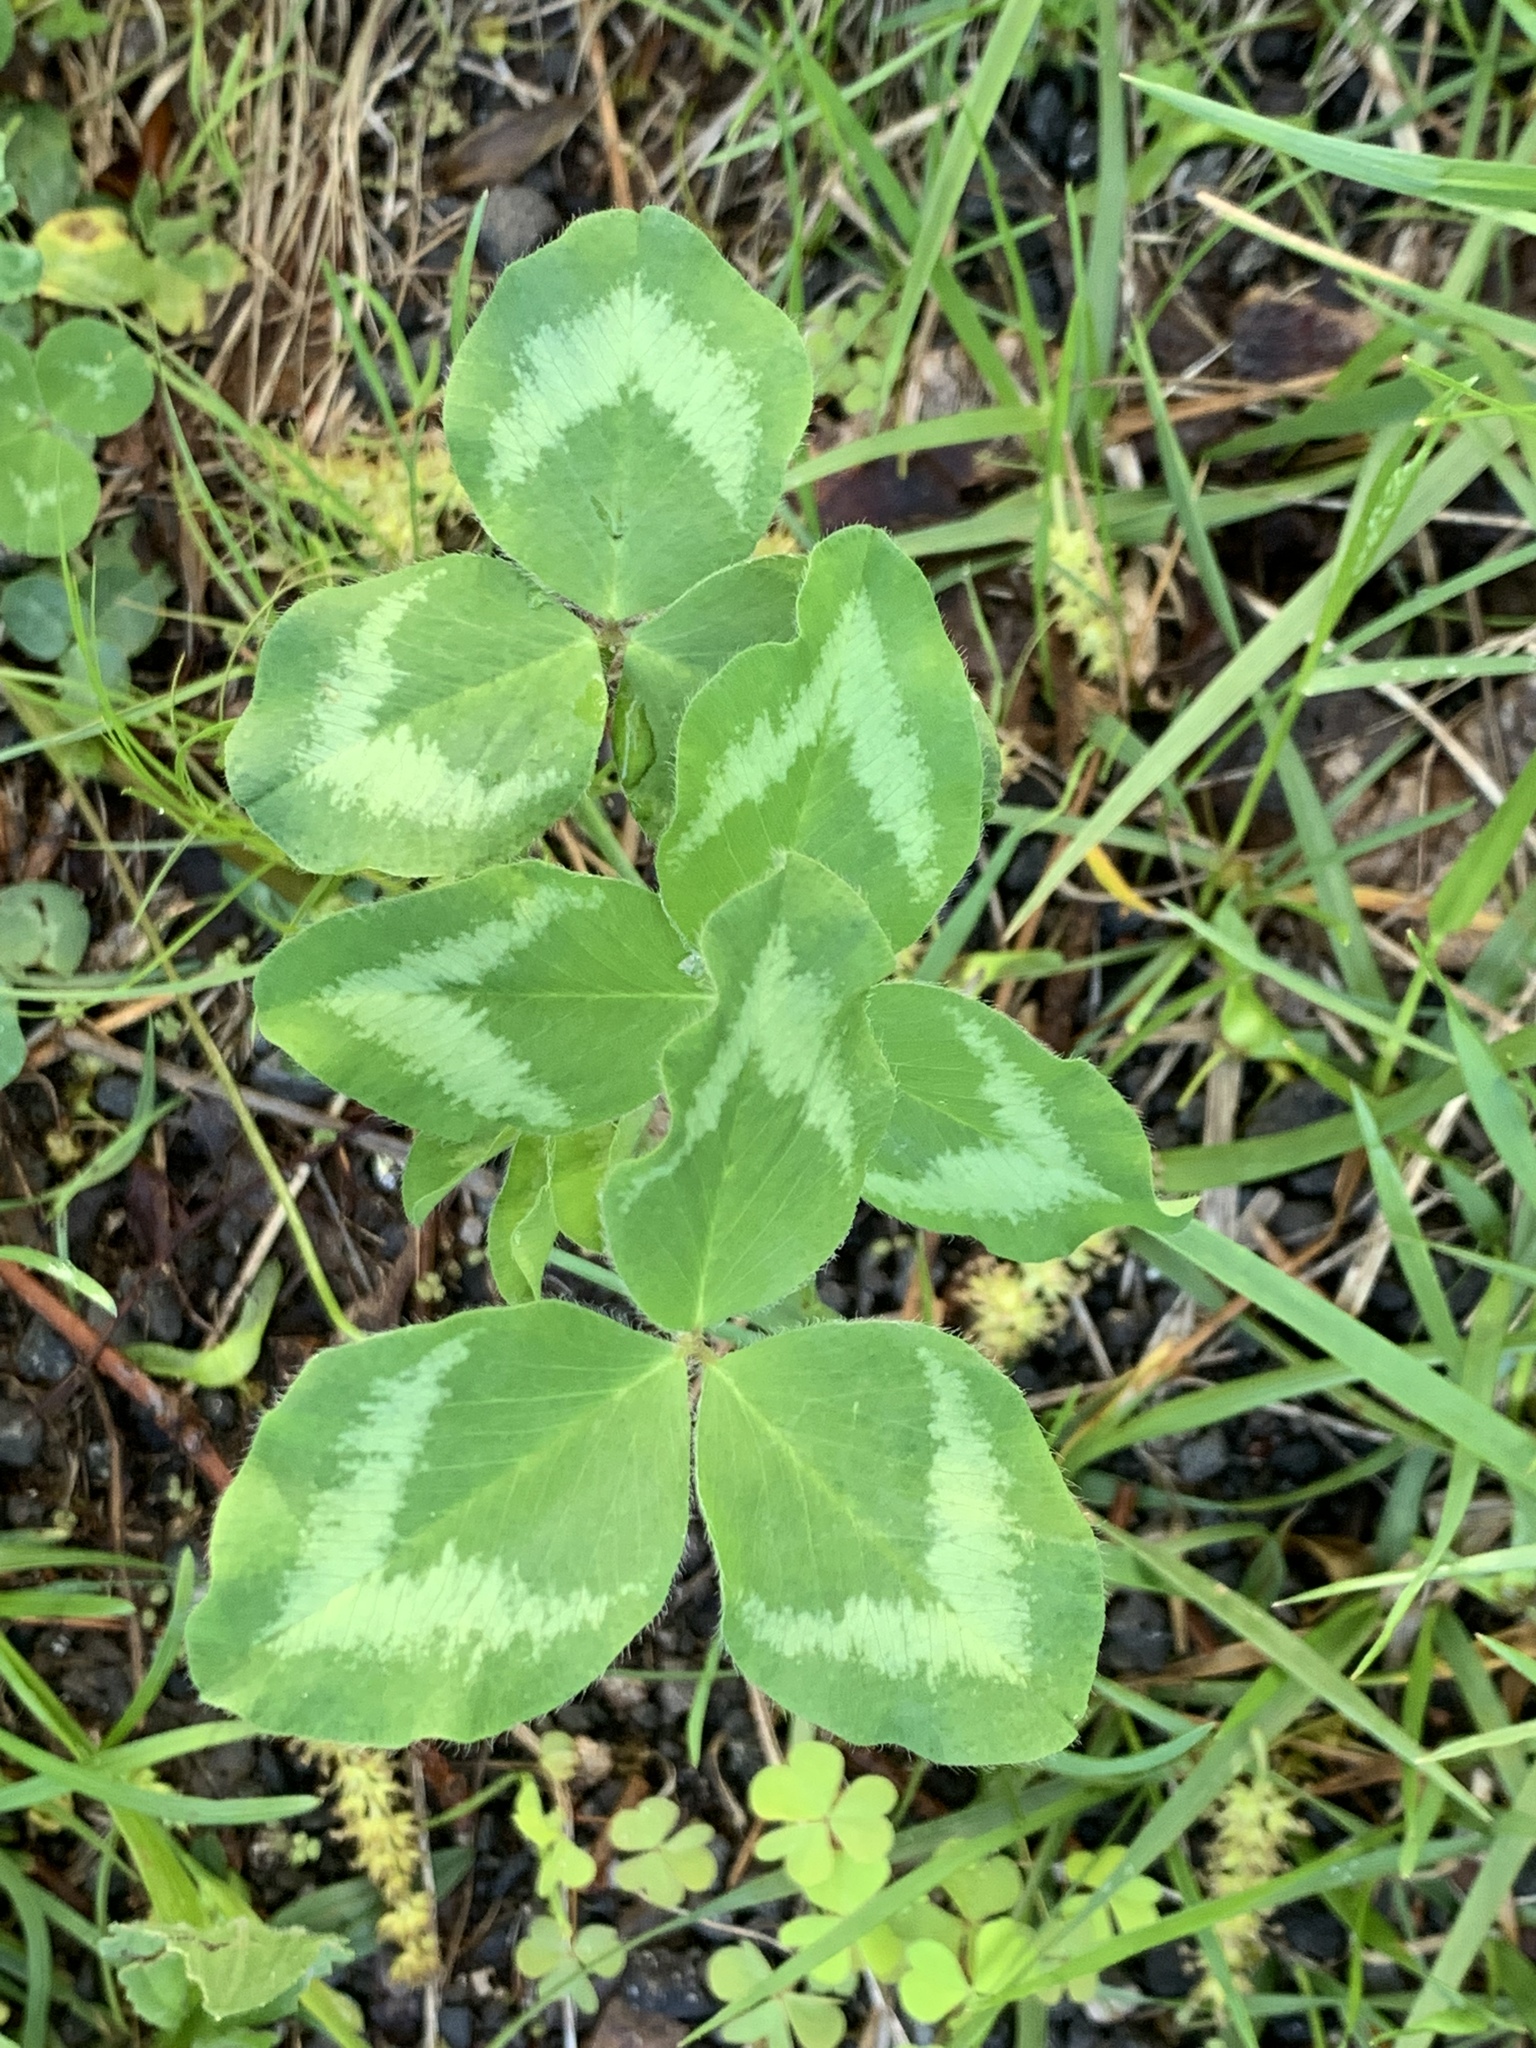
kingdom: Plantae
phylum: Tracheophyta
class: Magnoliopsida
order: Fabales
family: Fabaceae
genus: Trifolium
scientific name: Trifolium pratense
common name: Red clover
